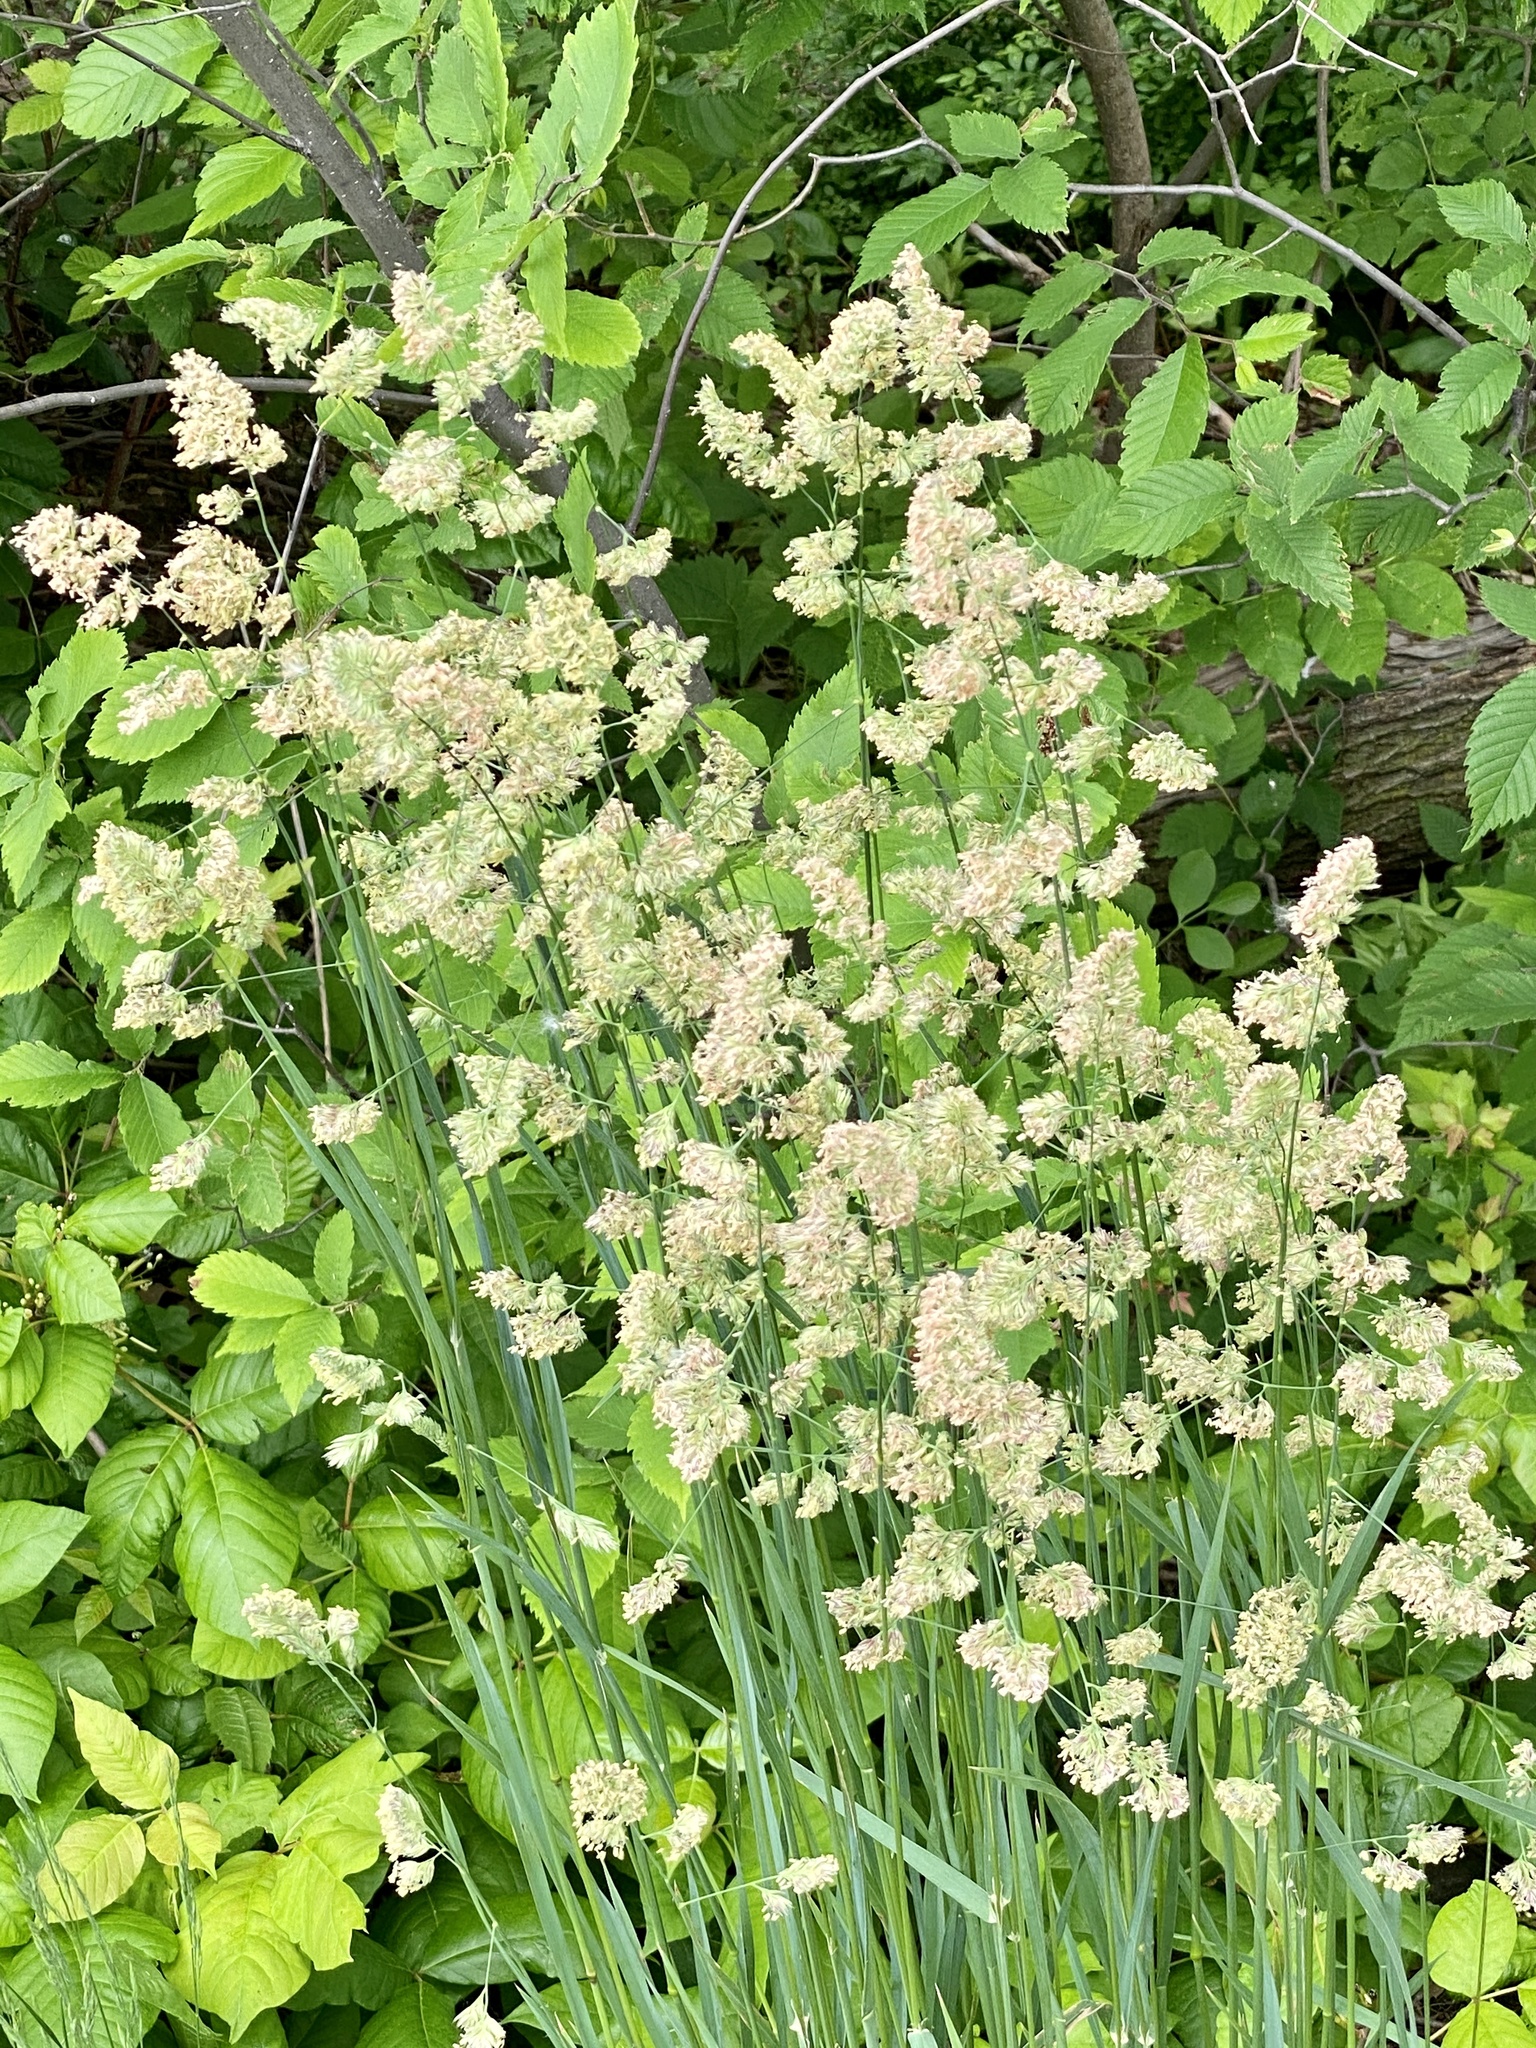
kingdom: Plantae
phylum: Tracheophyta
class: Liliopsida
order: Poales
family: Poaceae
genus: Dactylis
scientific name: Dactylis glomerata
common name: Orchardgrass
